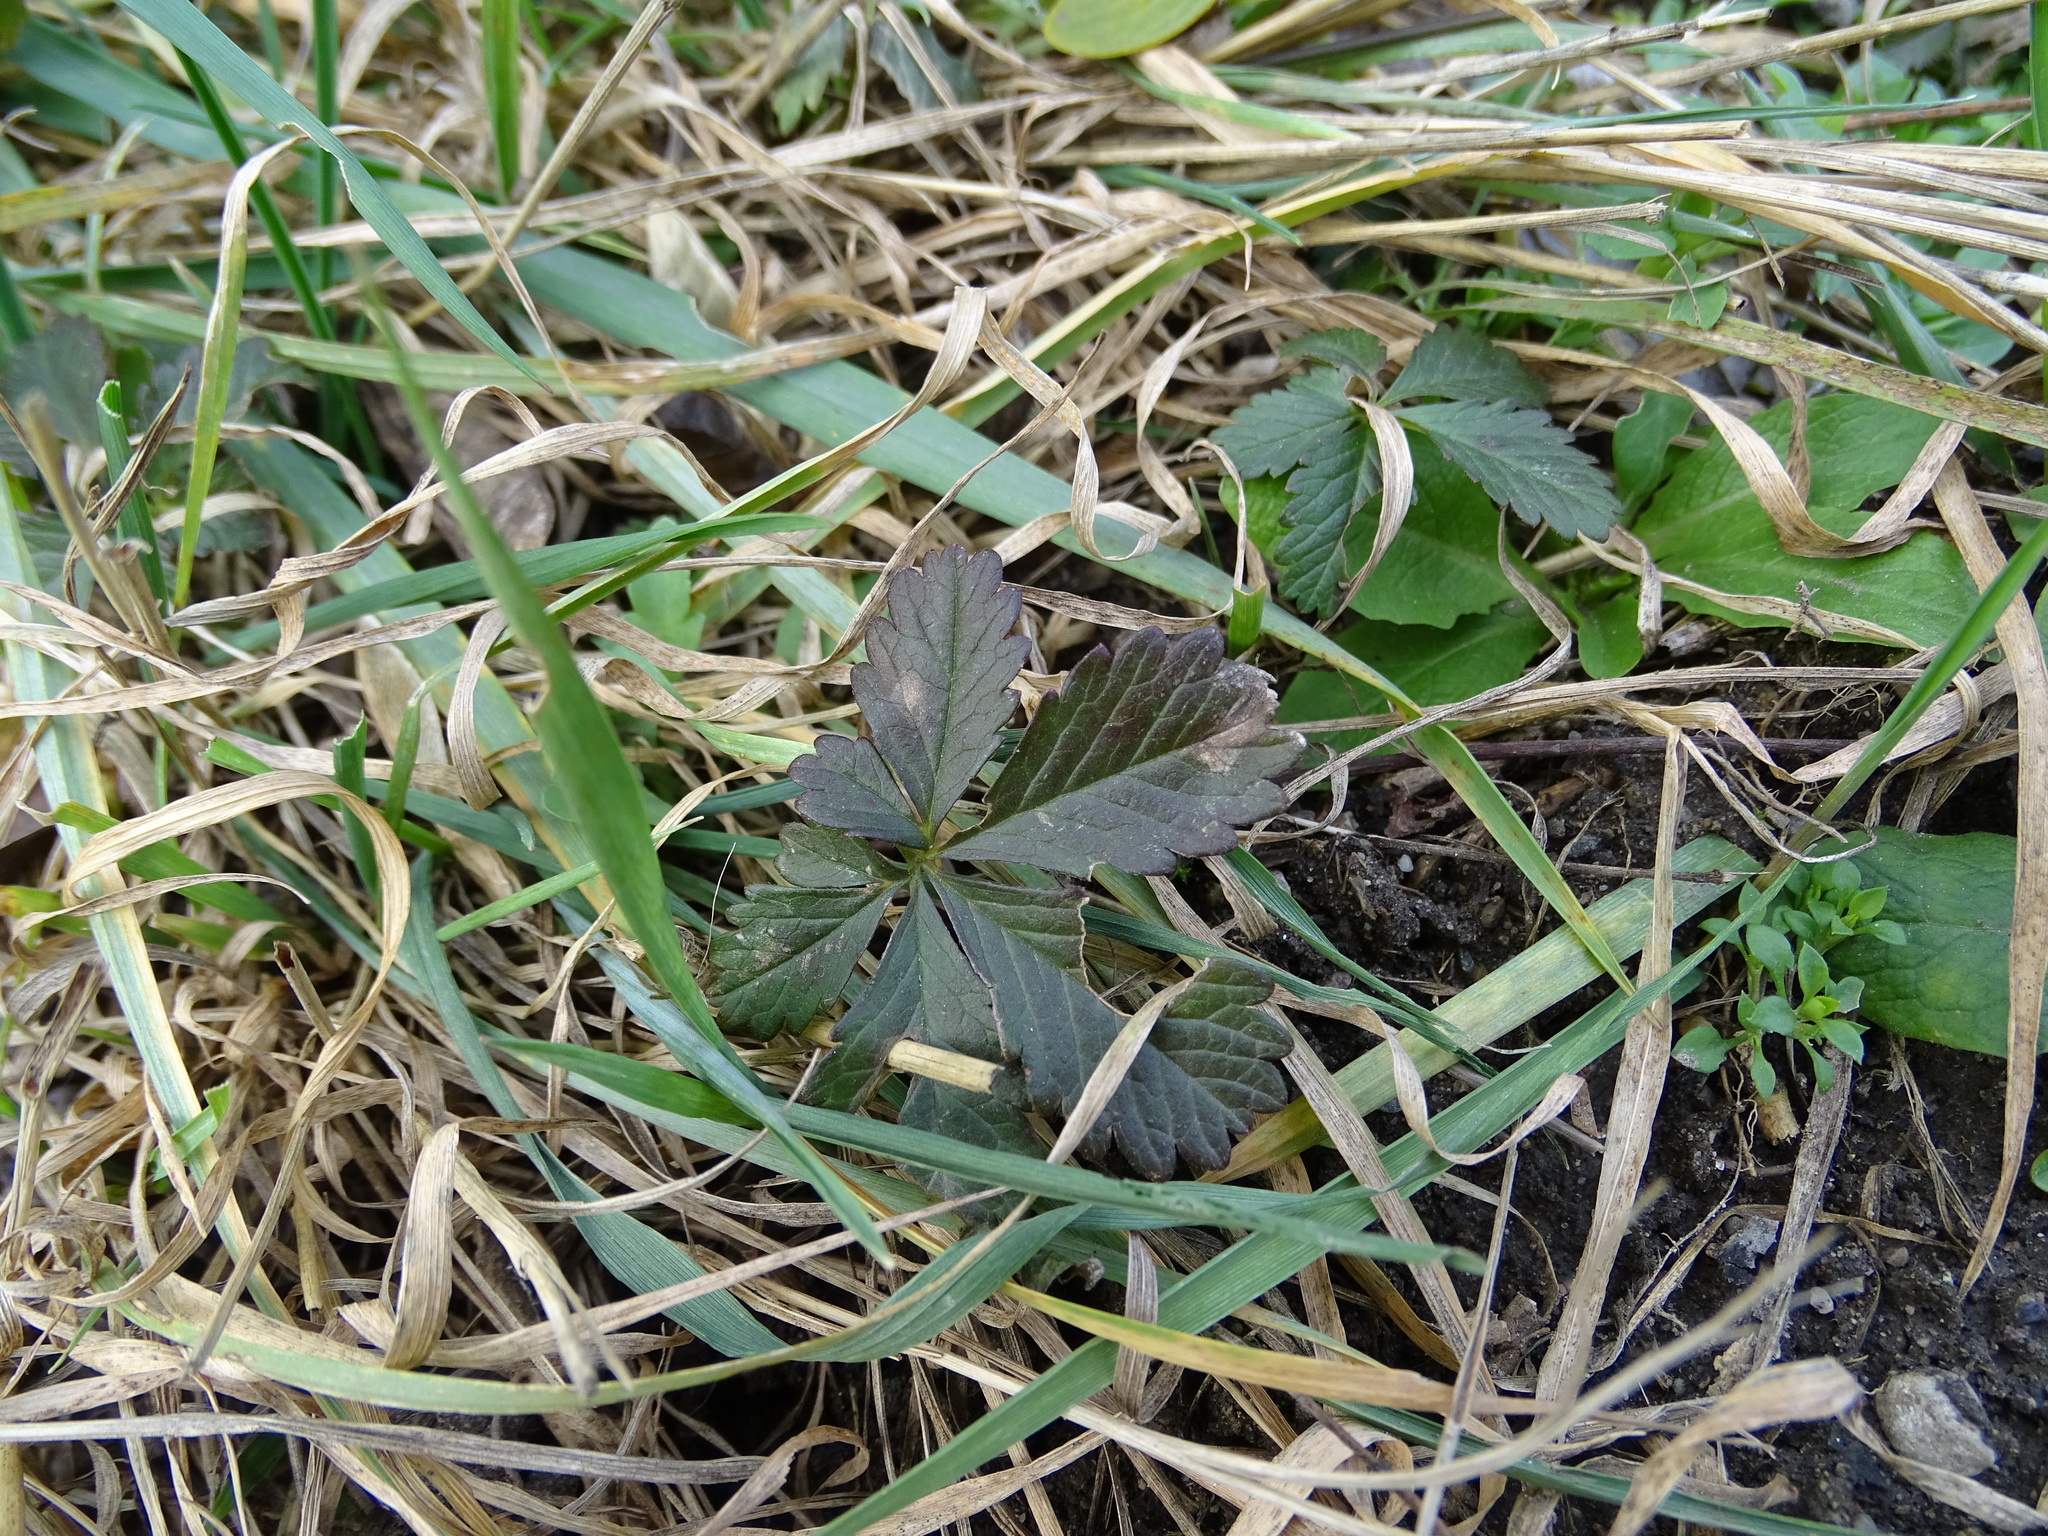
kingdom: Plantae
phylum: Tracheophyta
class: Magnoliopsida
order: Rosales
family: Rosaceae
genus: Potentilla
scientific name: Potentilla reptans
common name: Creeping cinquefoil
